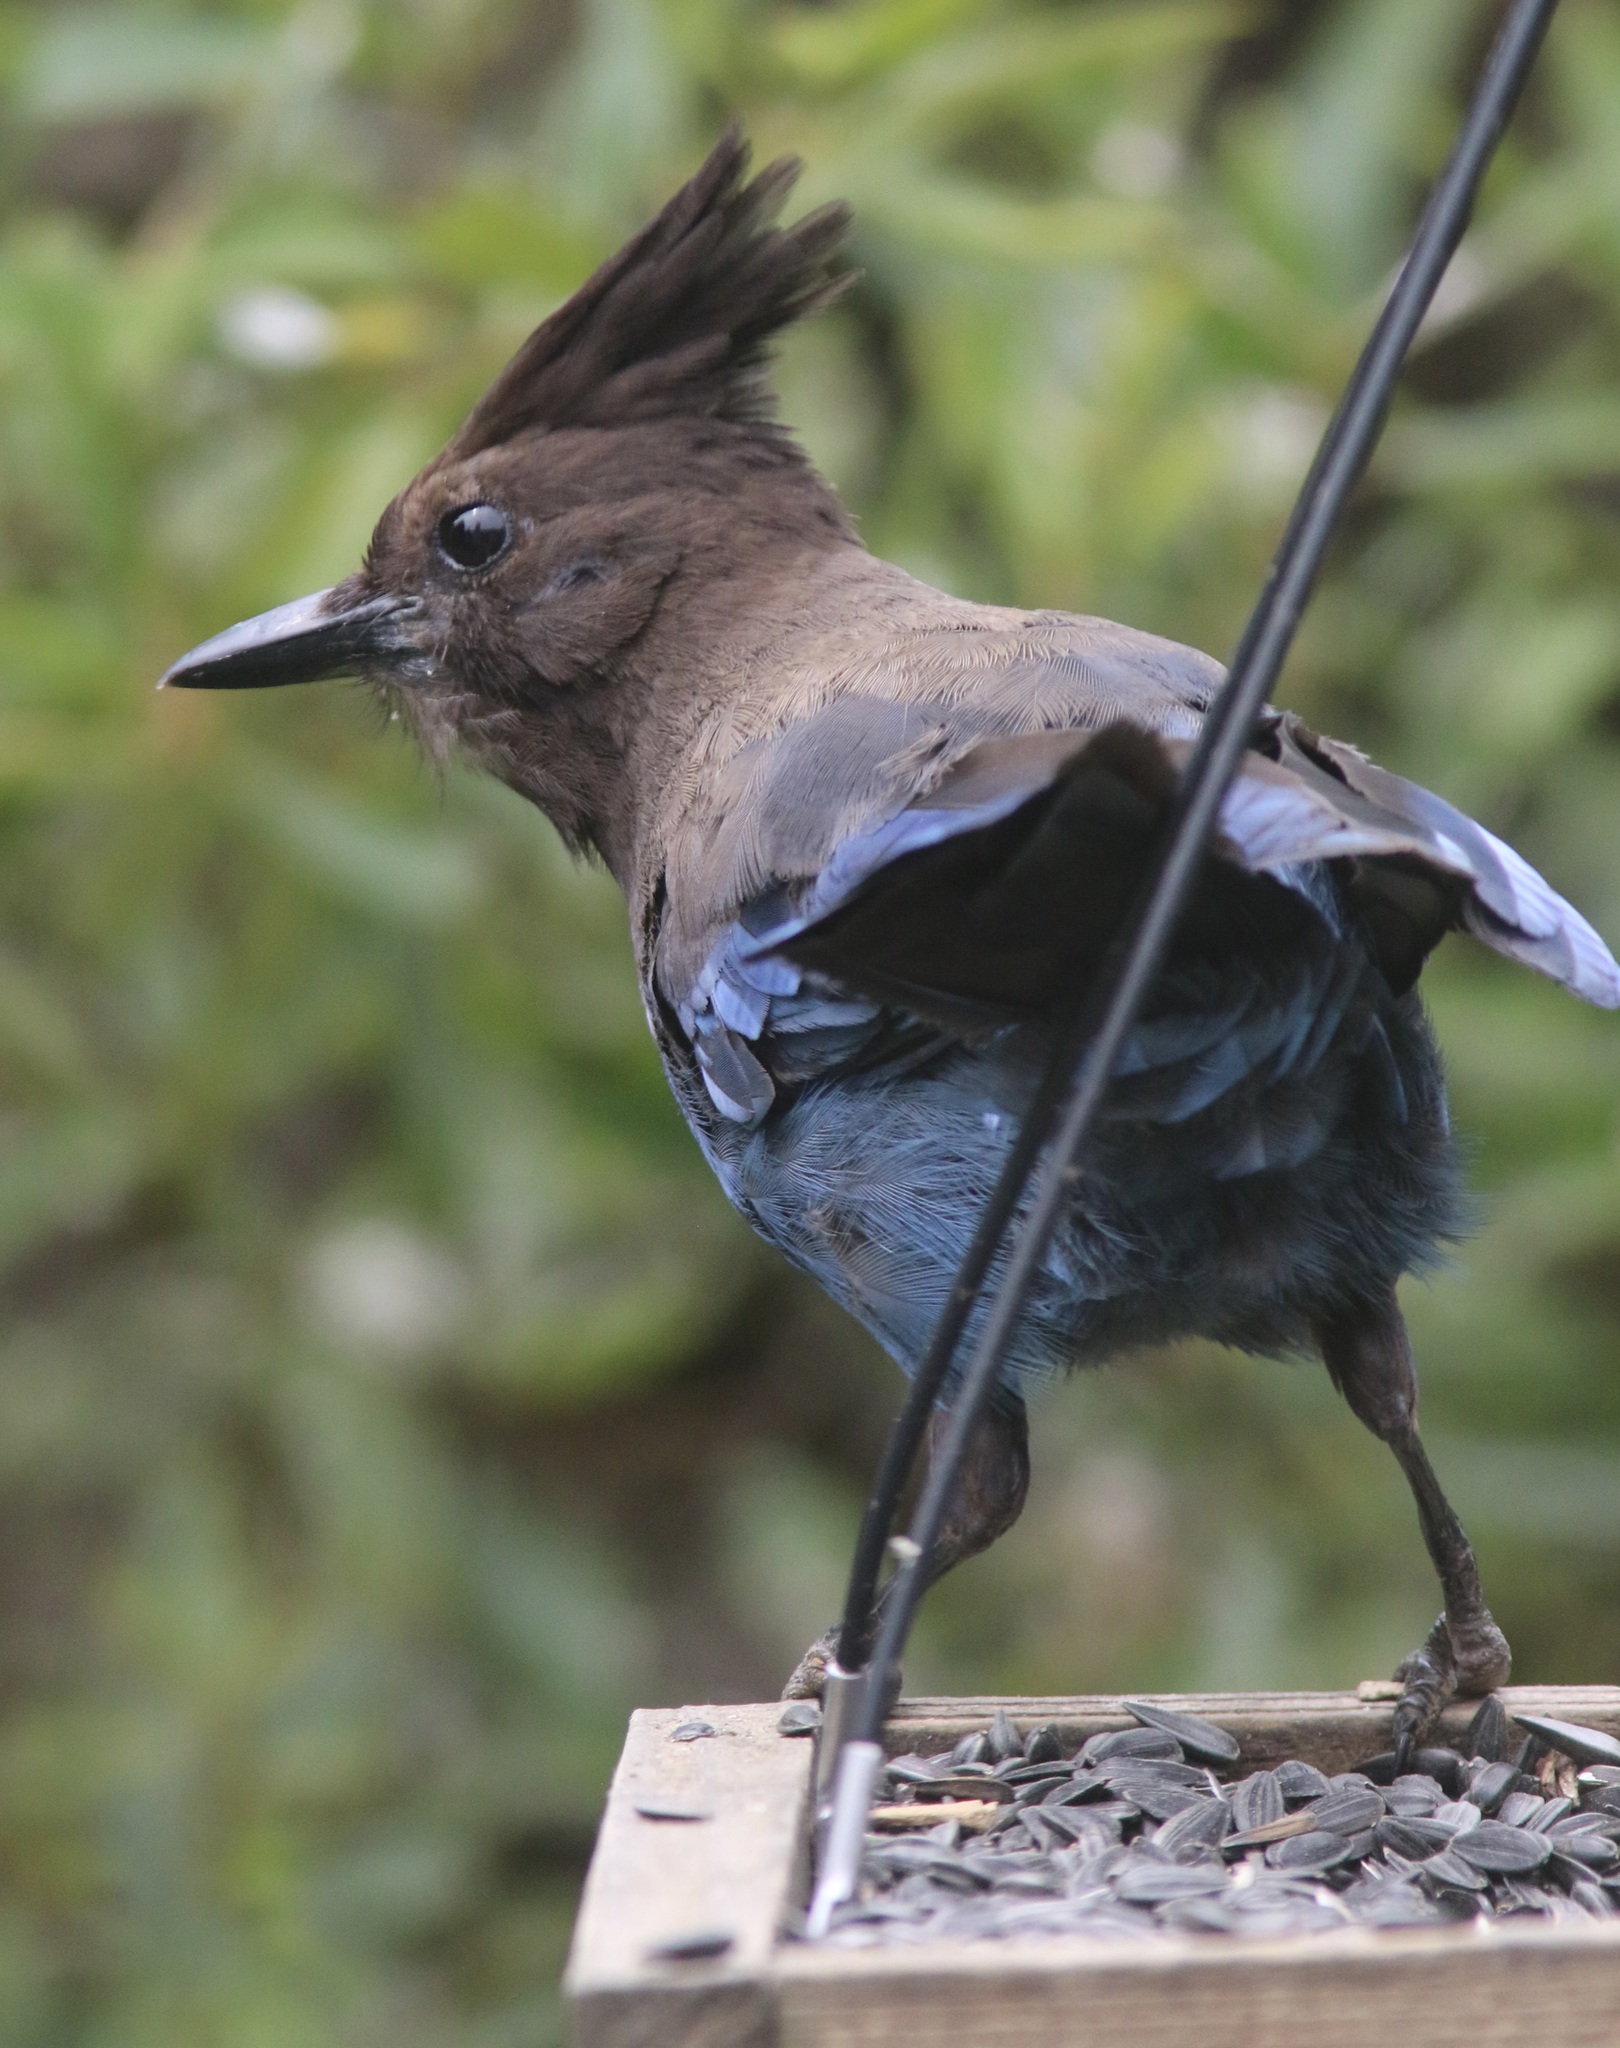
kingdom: Animalia
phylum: Chordata
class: Aves
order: Passeriformes
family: Corvidae
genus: Cyanocitta
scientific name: Cyanocitta stelleri
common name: Steller's jay
